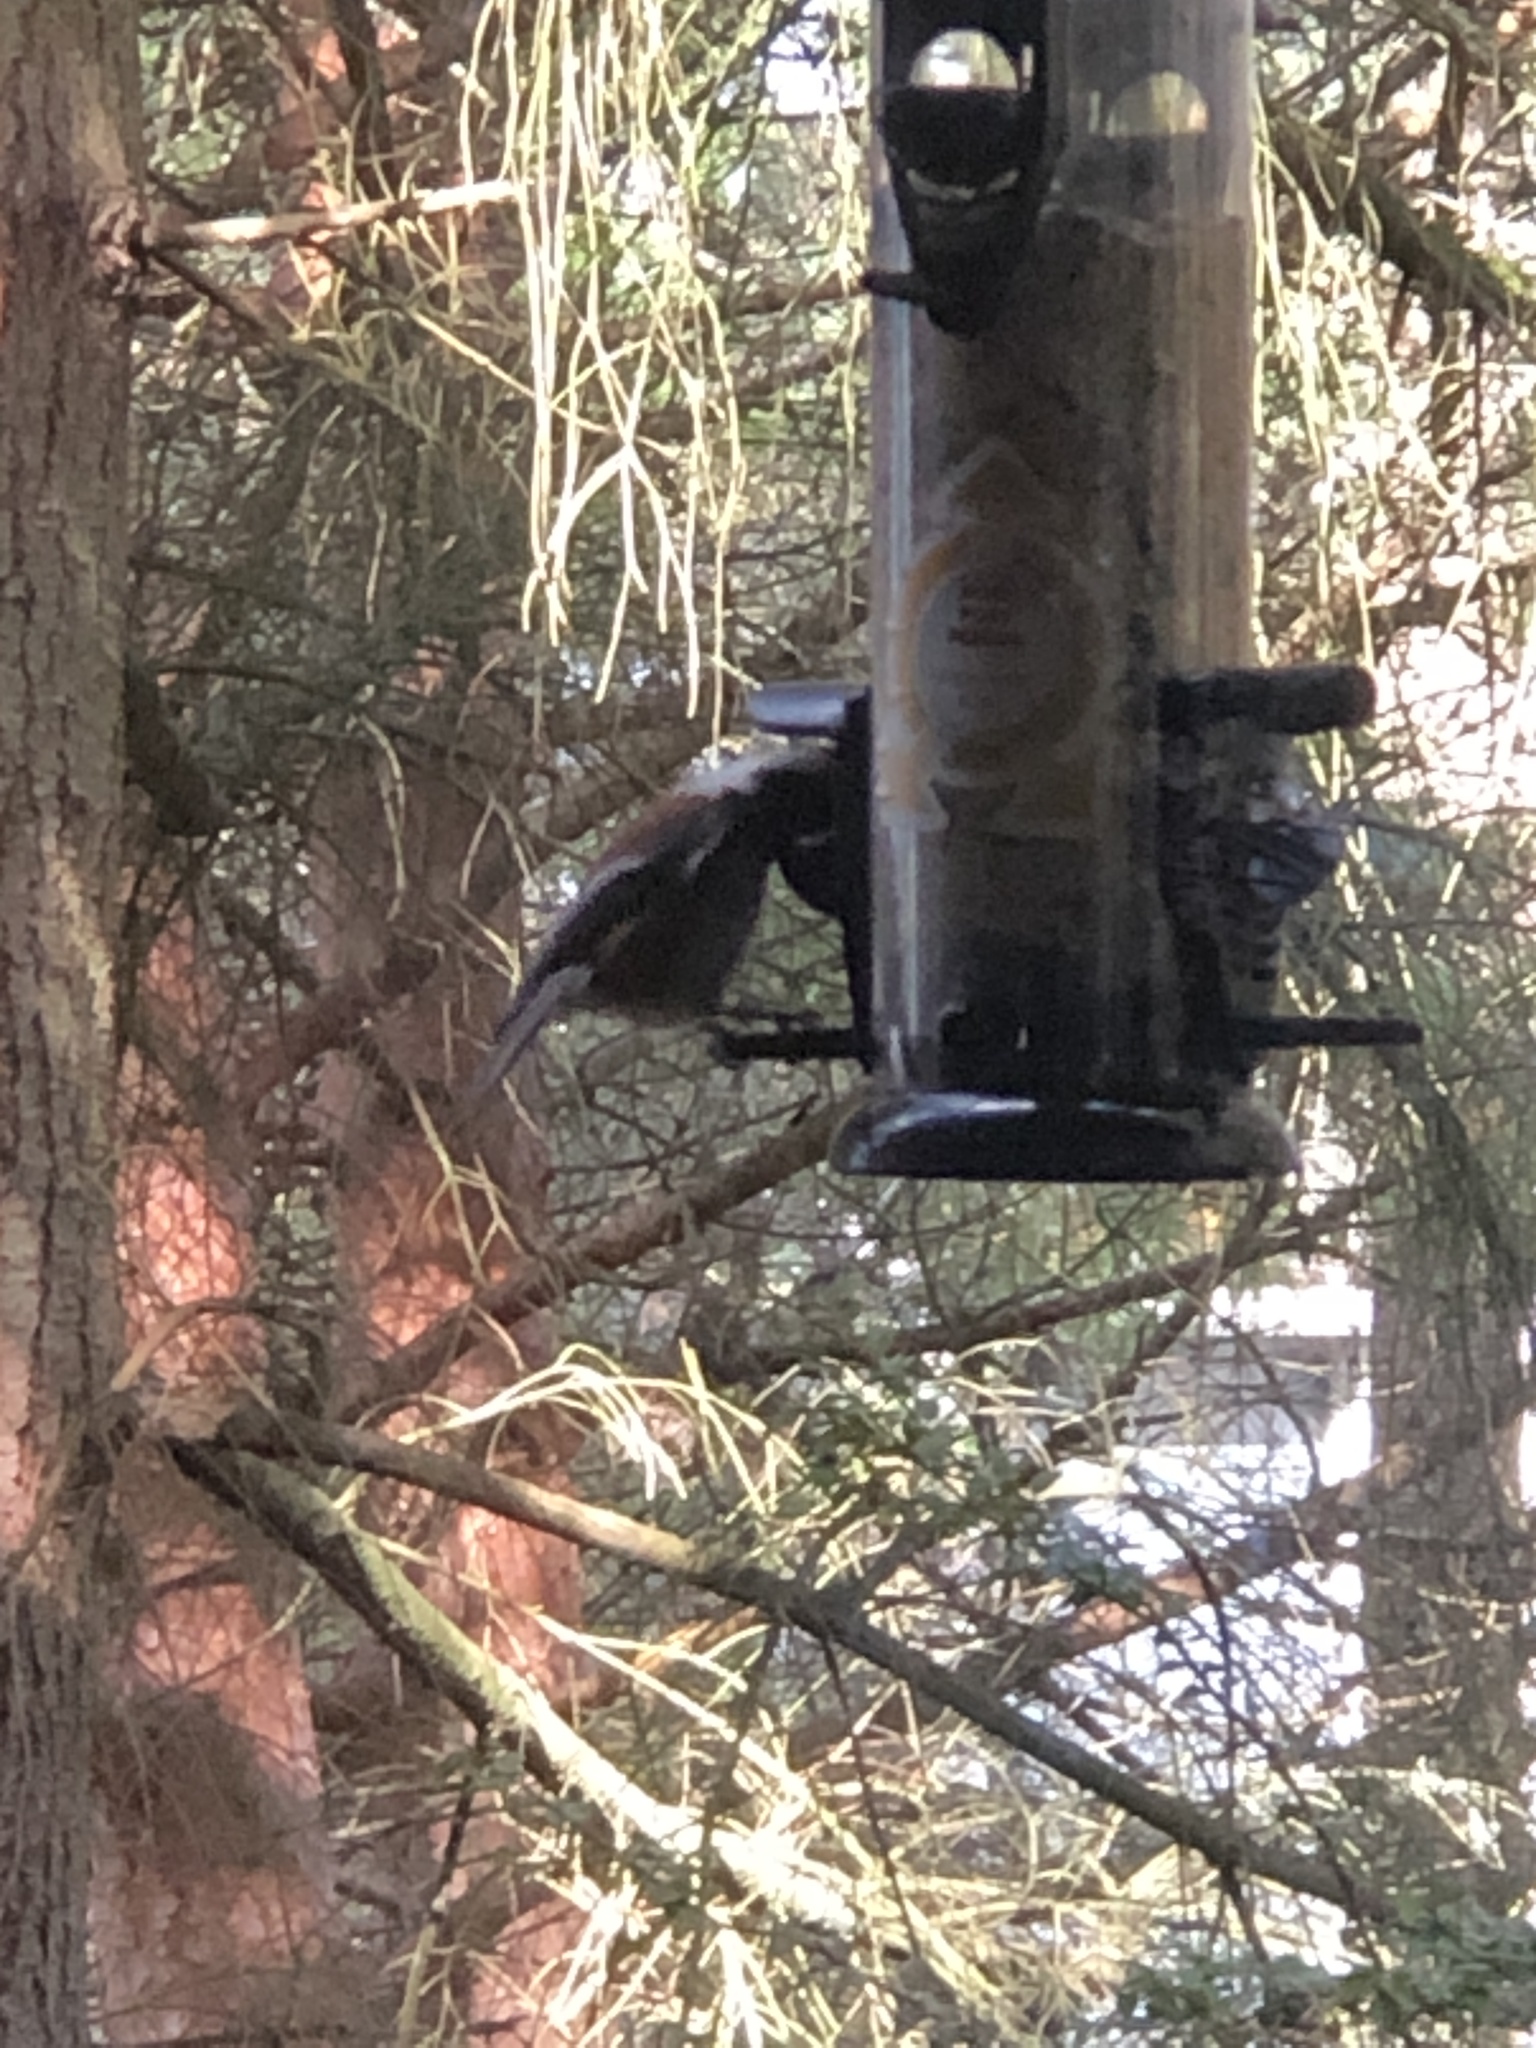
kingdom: Animalia
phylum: Chordata
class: Aves
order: Passeriformes
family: Paridae
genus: Poecile
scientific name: Poecile rufescens
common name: Chestnut-backed chickadee
